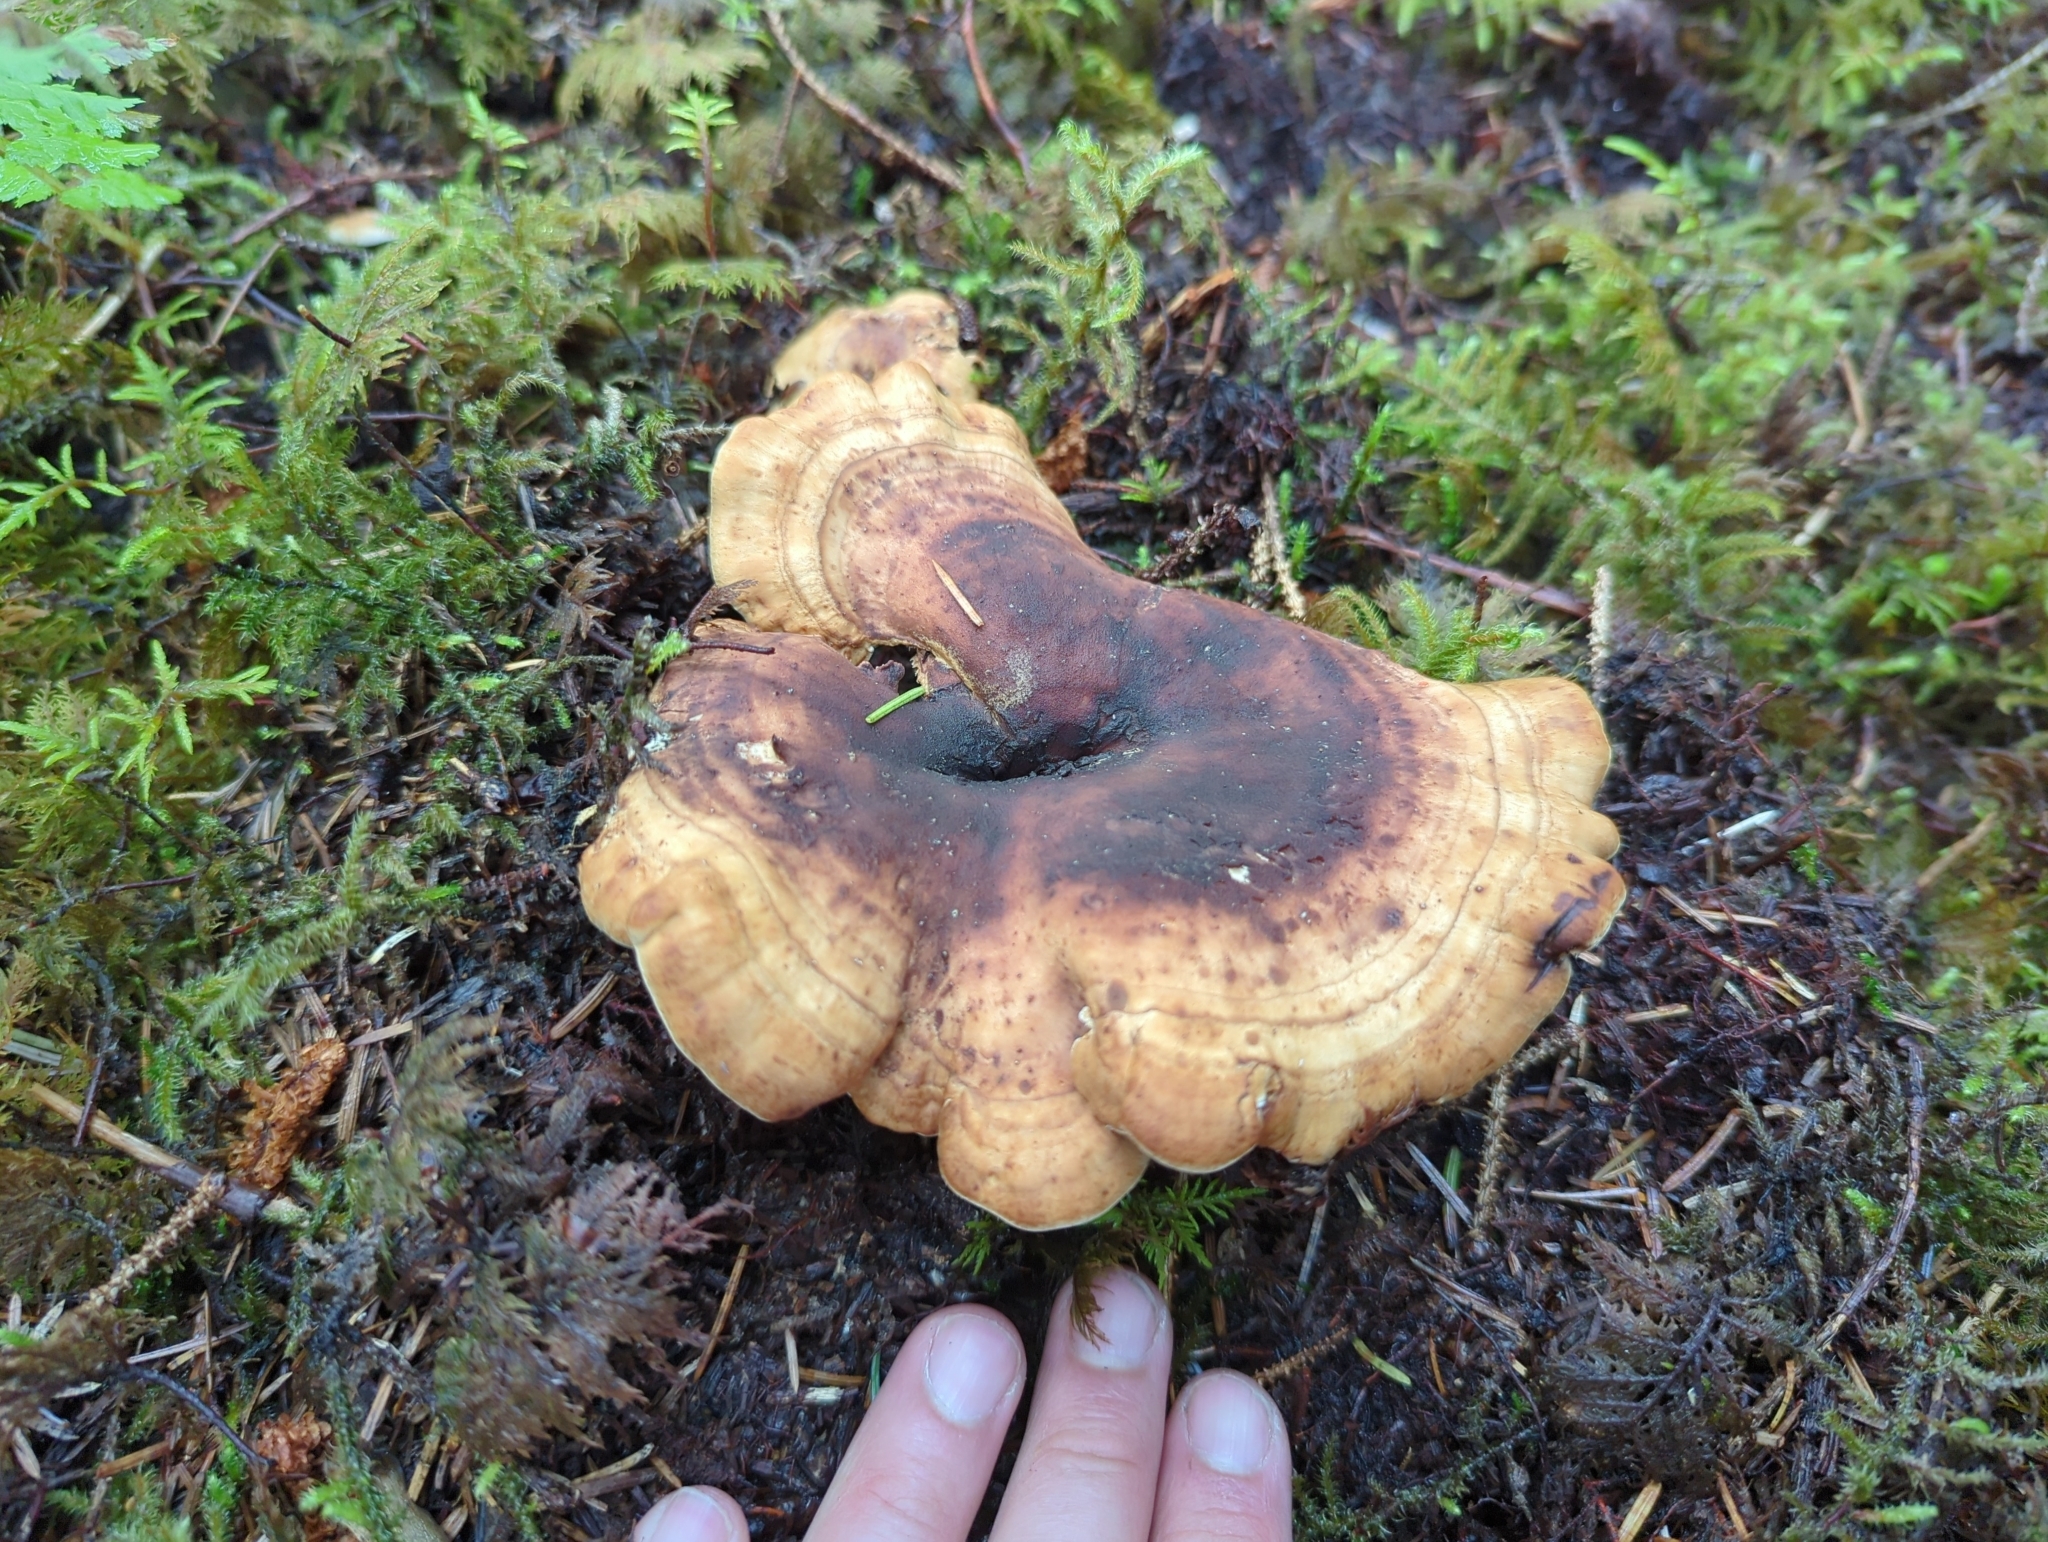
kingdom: Fungi
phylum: Basidiomycota
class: Agaricomycetes
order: Thelephorales
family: Bankeraceae
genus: Sarcodon
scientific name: Sarcodon stereosarcinon
